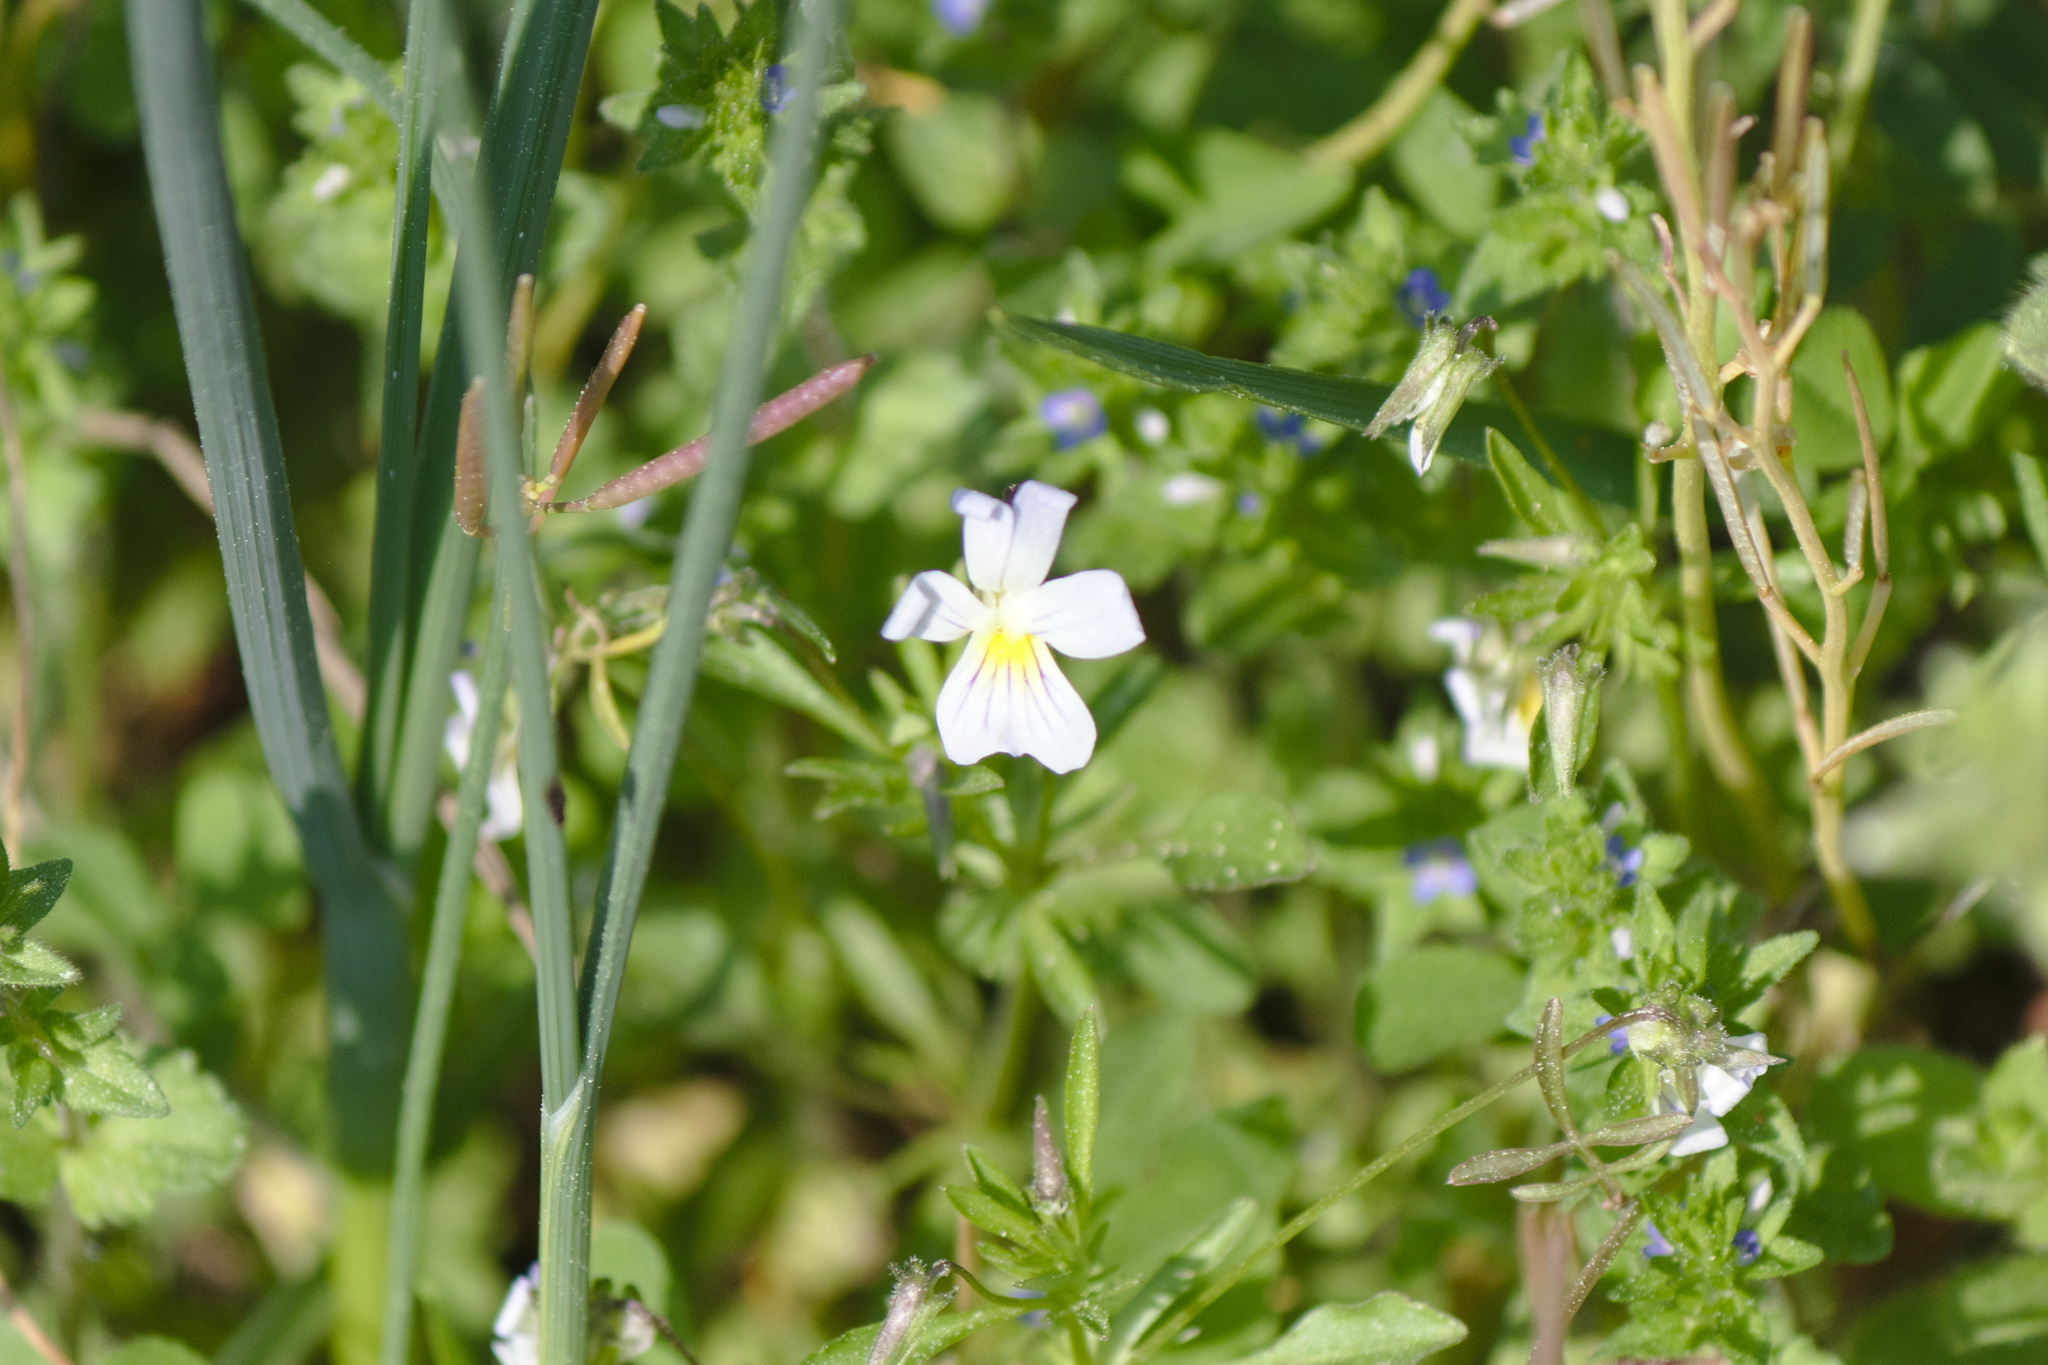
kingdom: Plantae
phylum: Tracheophyta
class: Magnoliopsida
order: Malpighiales
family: Violaceae
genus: Viola
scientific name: Viola rafinesquei
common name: American field pansy
